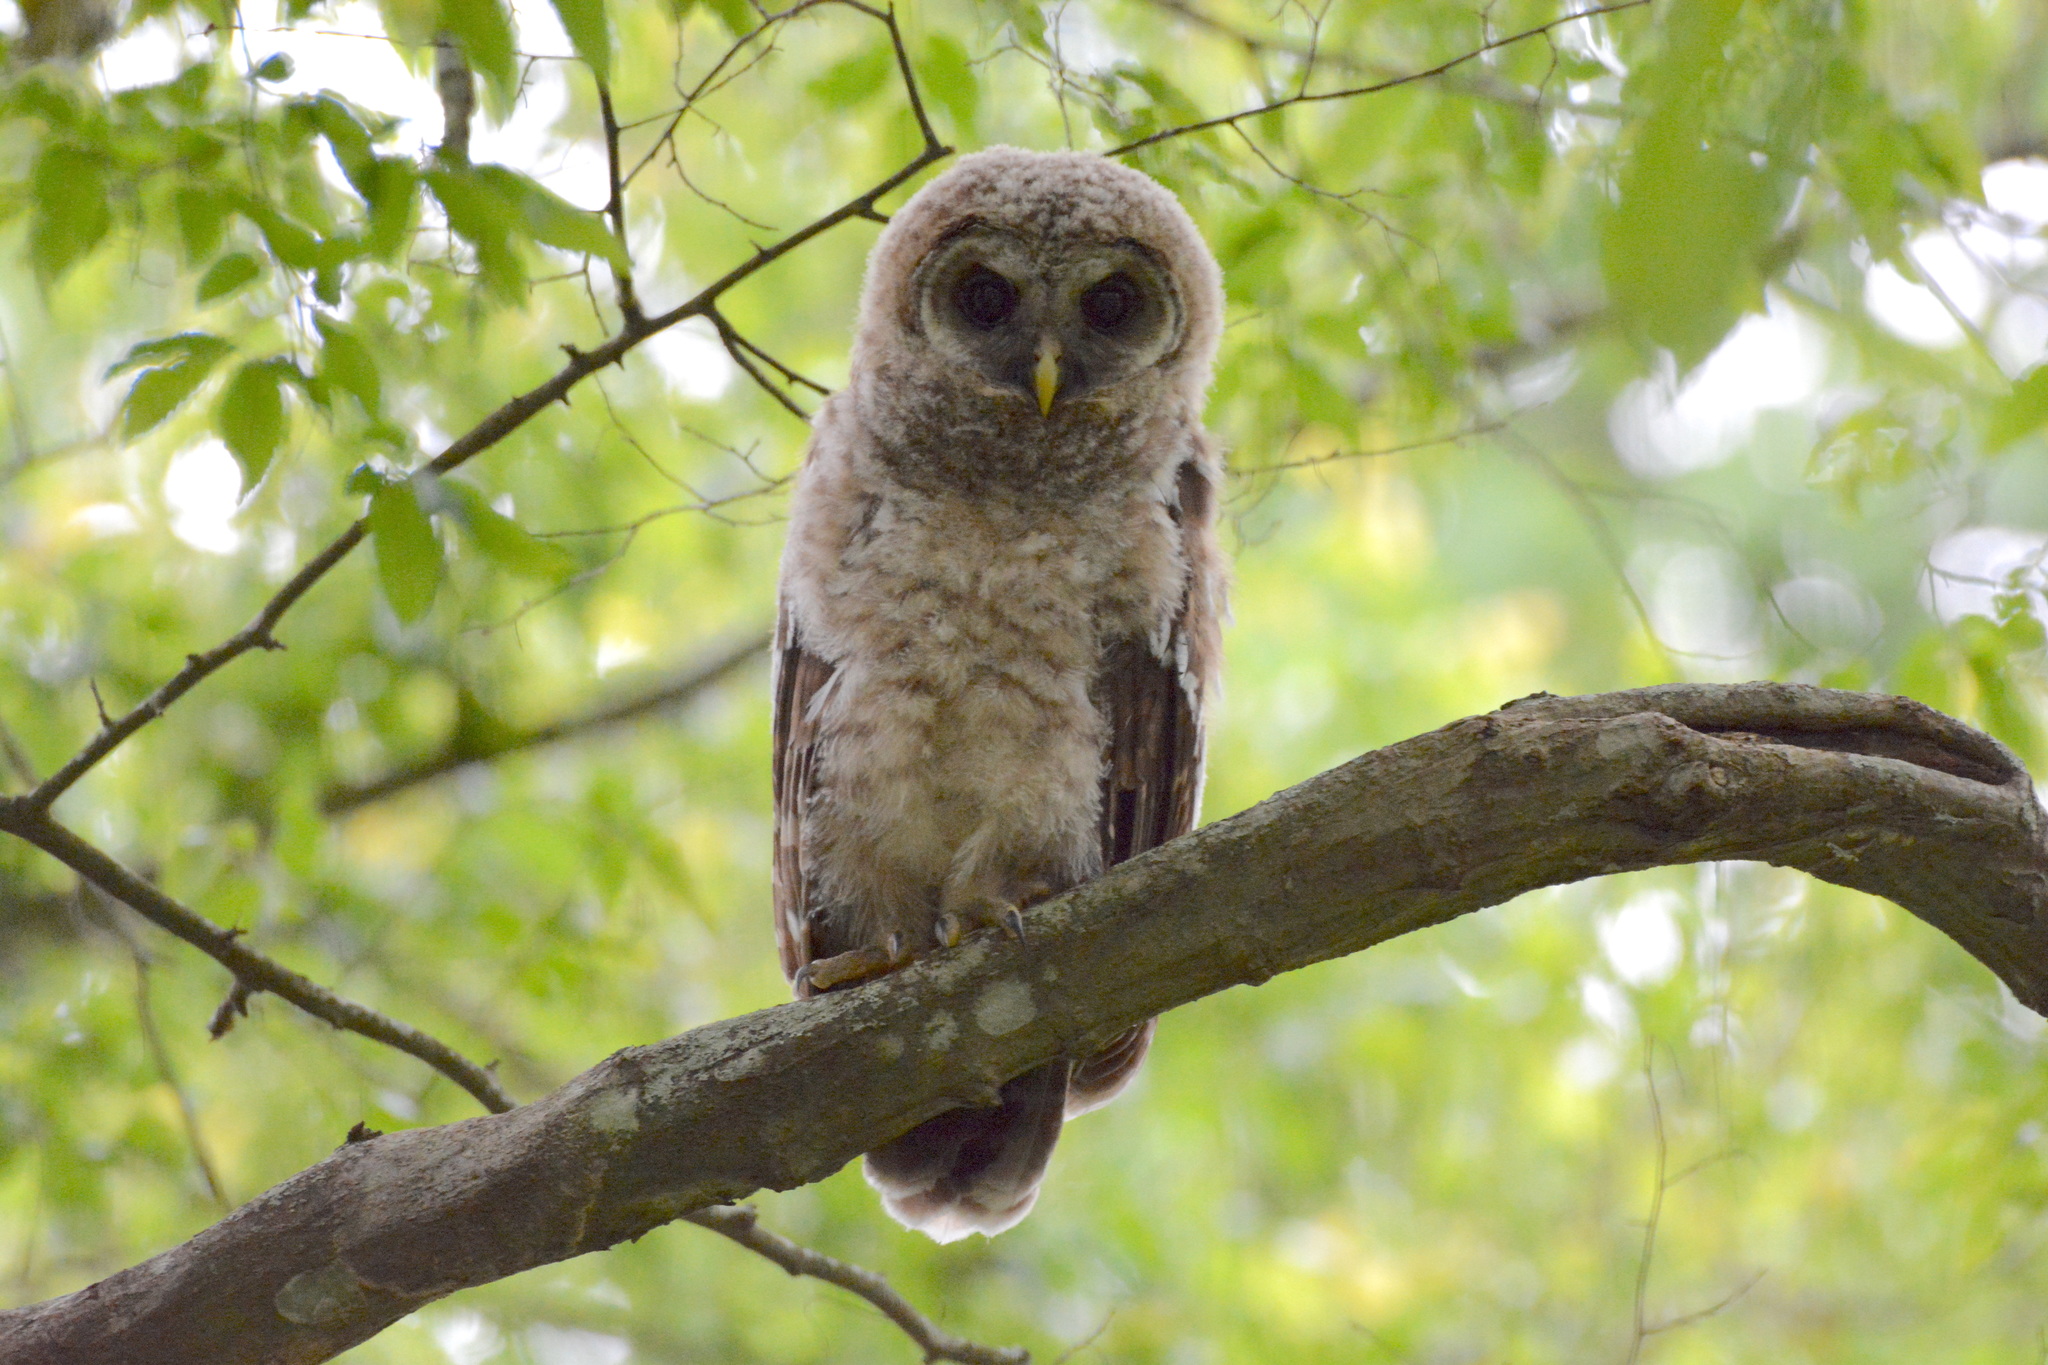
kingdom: Animalia
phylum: Chordata
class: Aves
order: Strigiformes
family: Strigidae
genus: Strix
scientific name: Strix varia
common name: Barred owl
